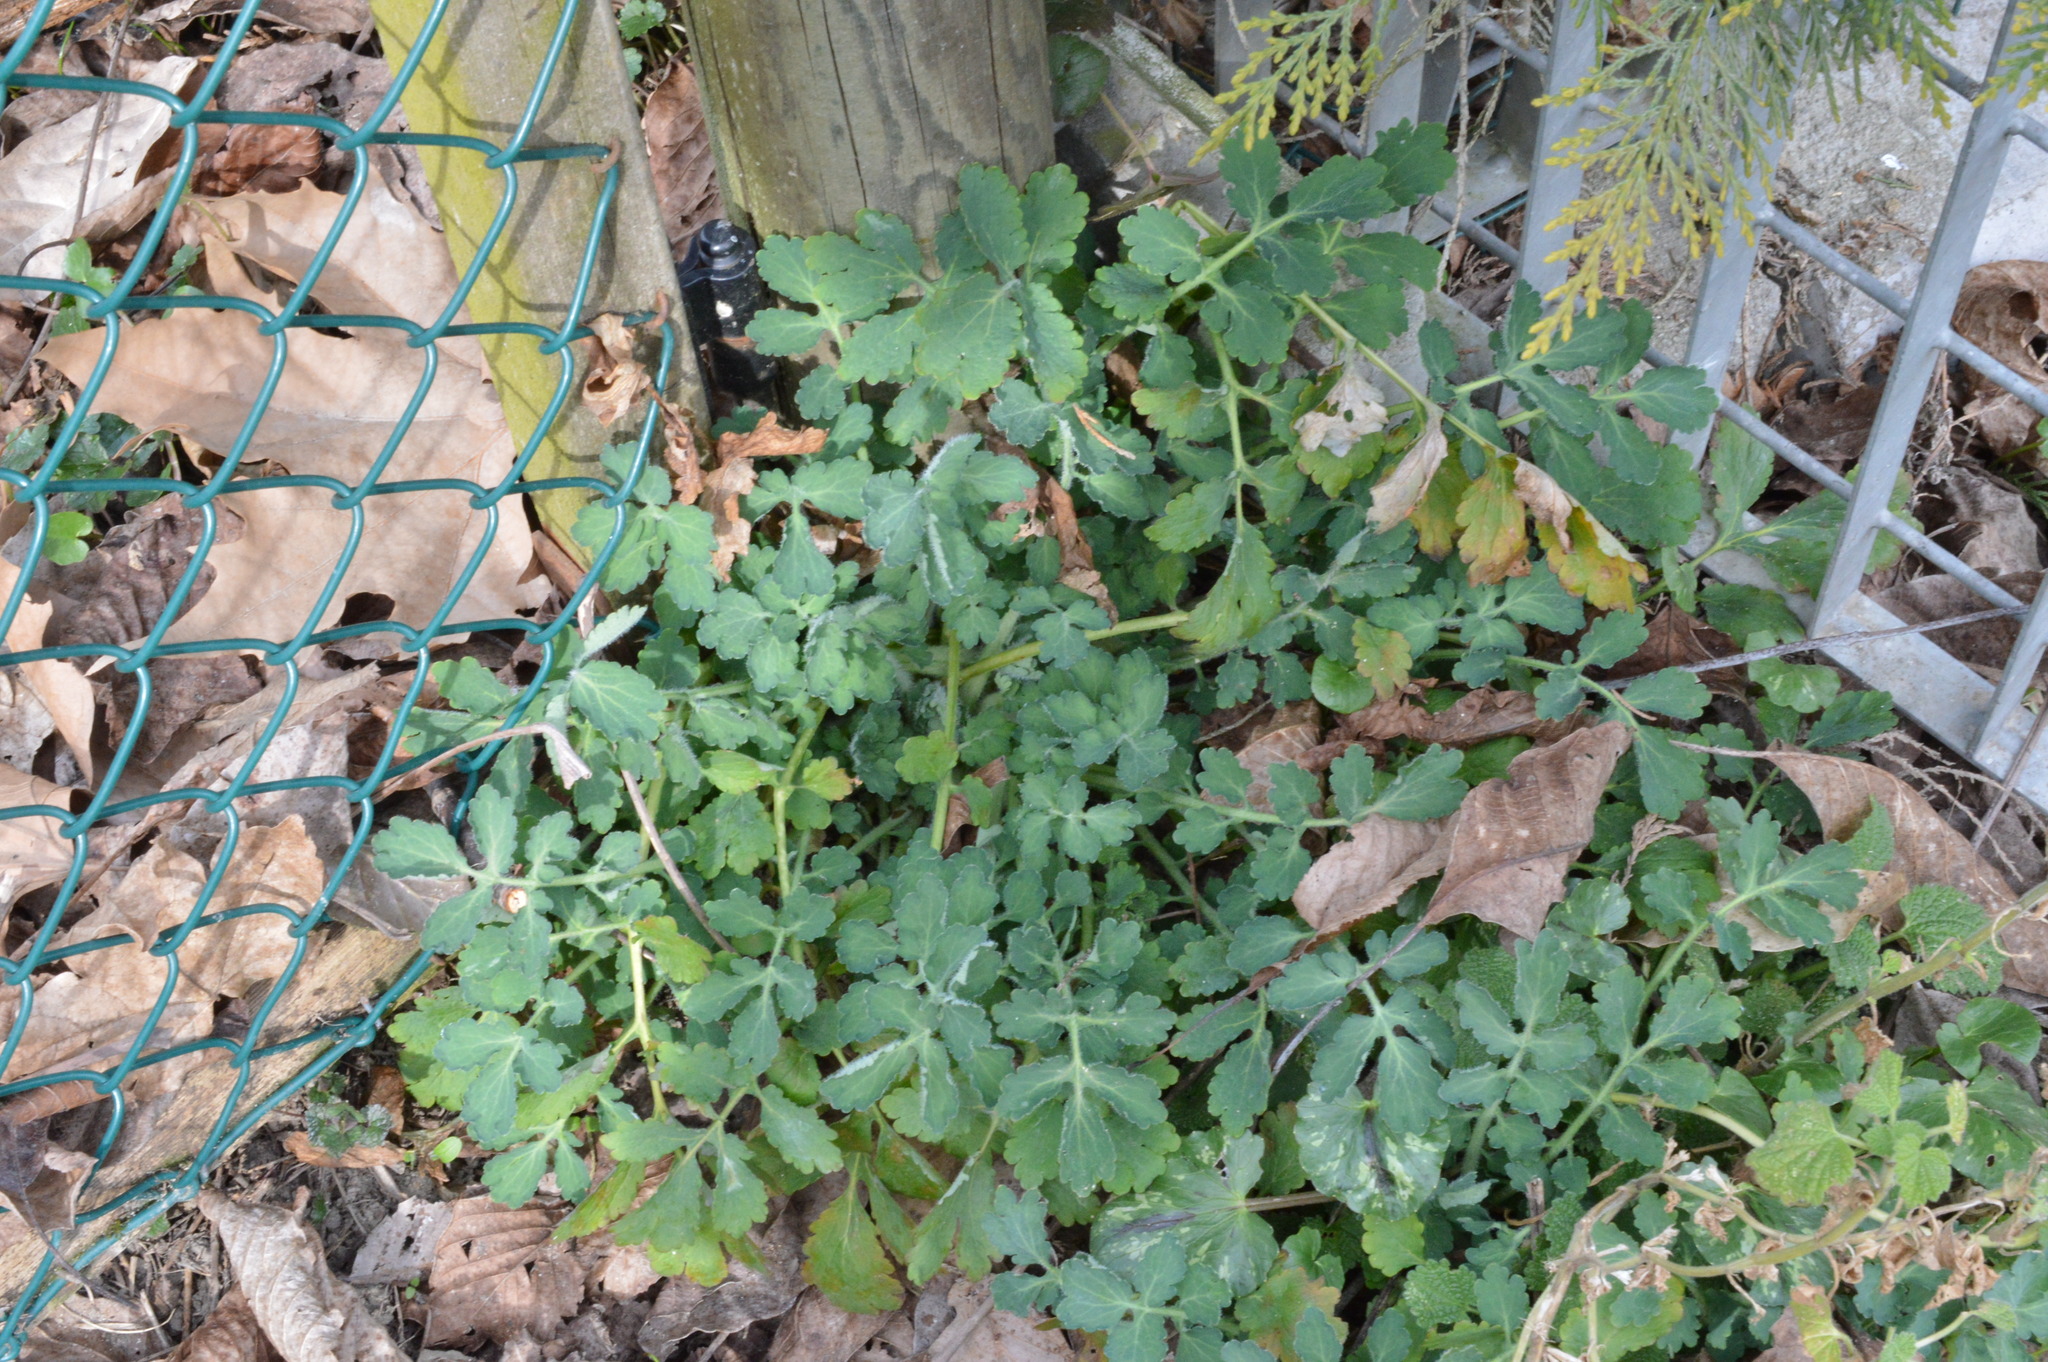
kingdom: Plantae
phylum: Tracheophyta
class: Magnoliopsida
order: Ranunculales
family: Papaveraceae
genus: Chelidonium
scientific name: Chelidonium majus
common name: Greater celandine
